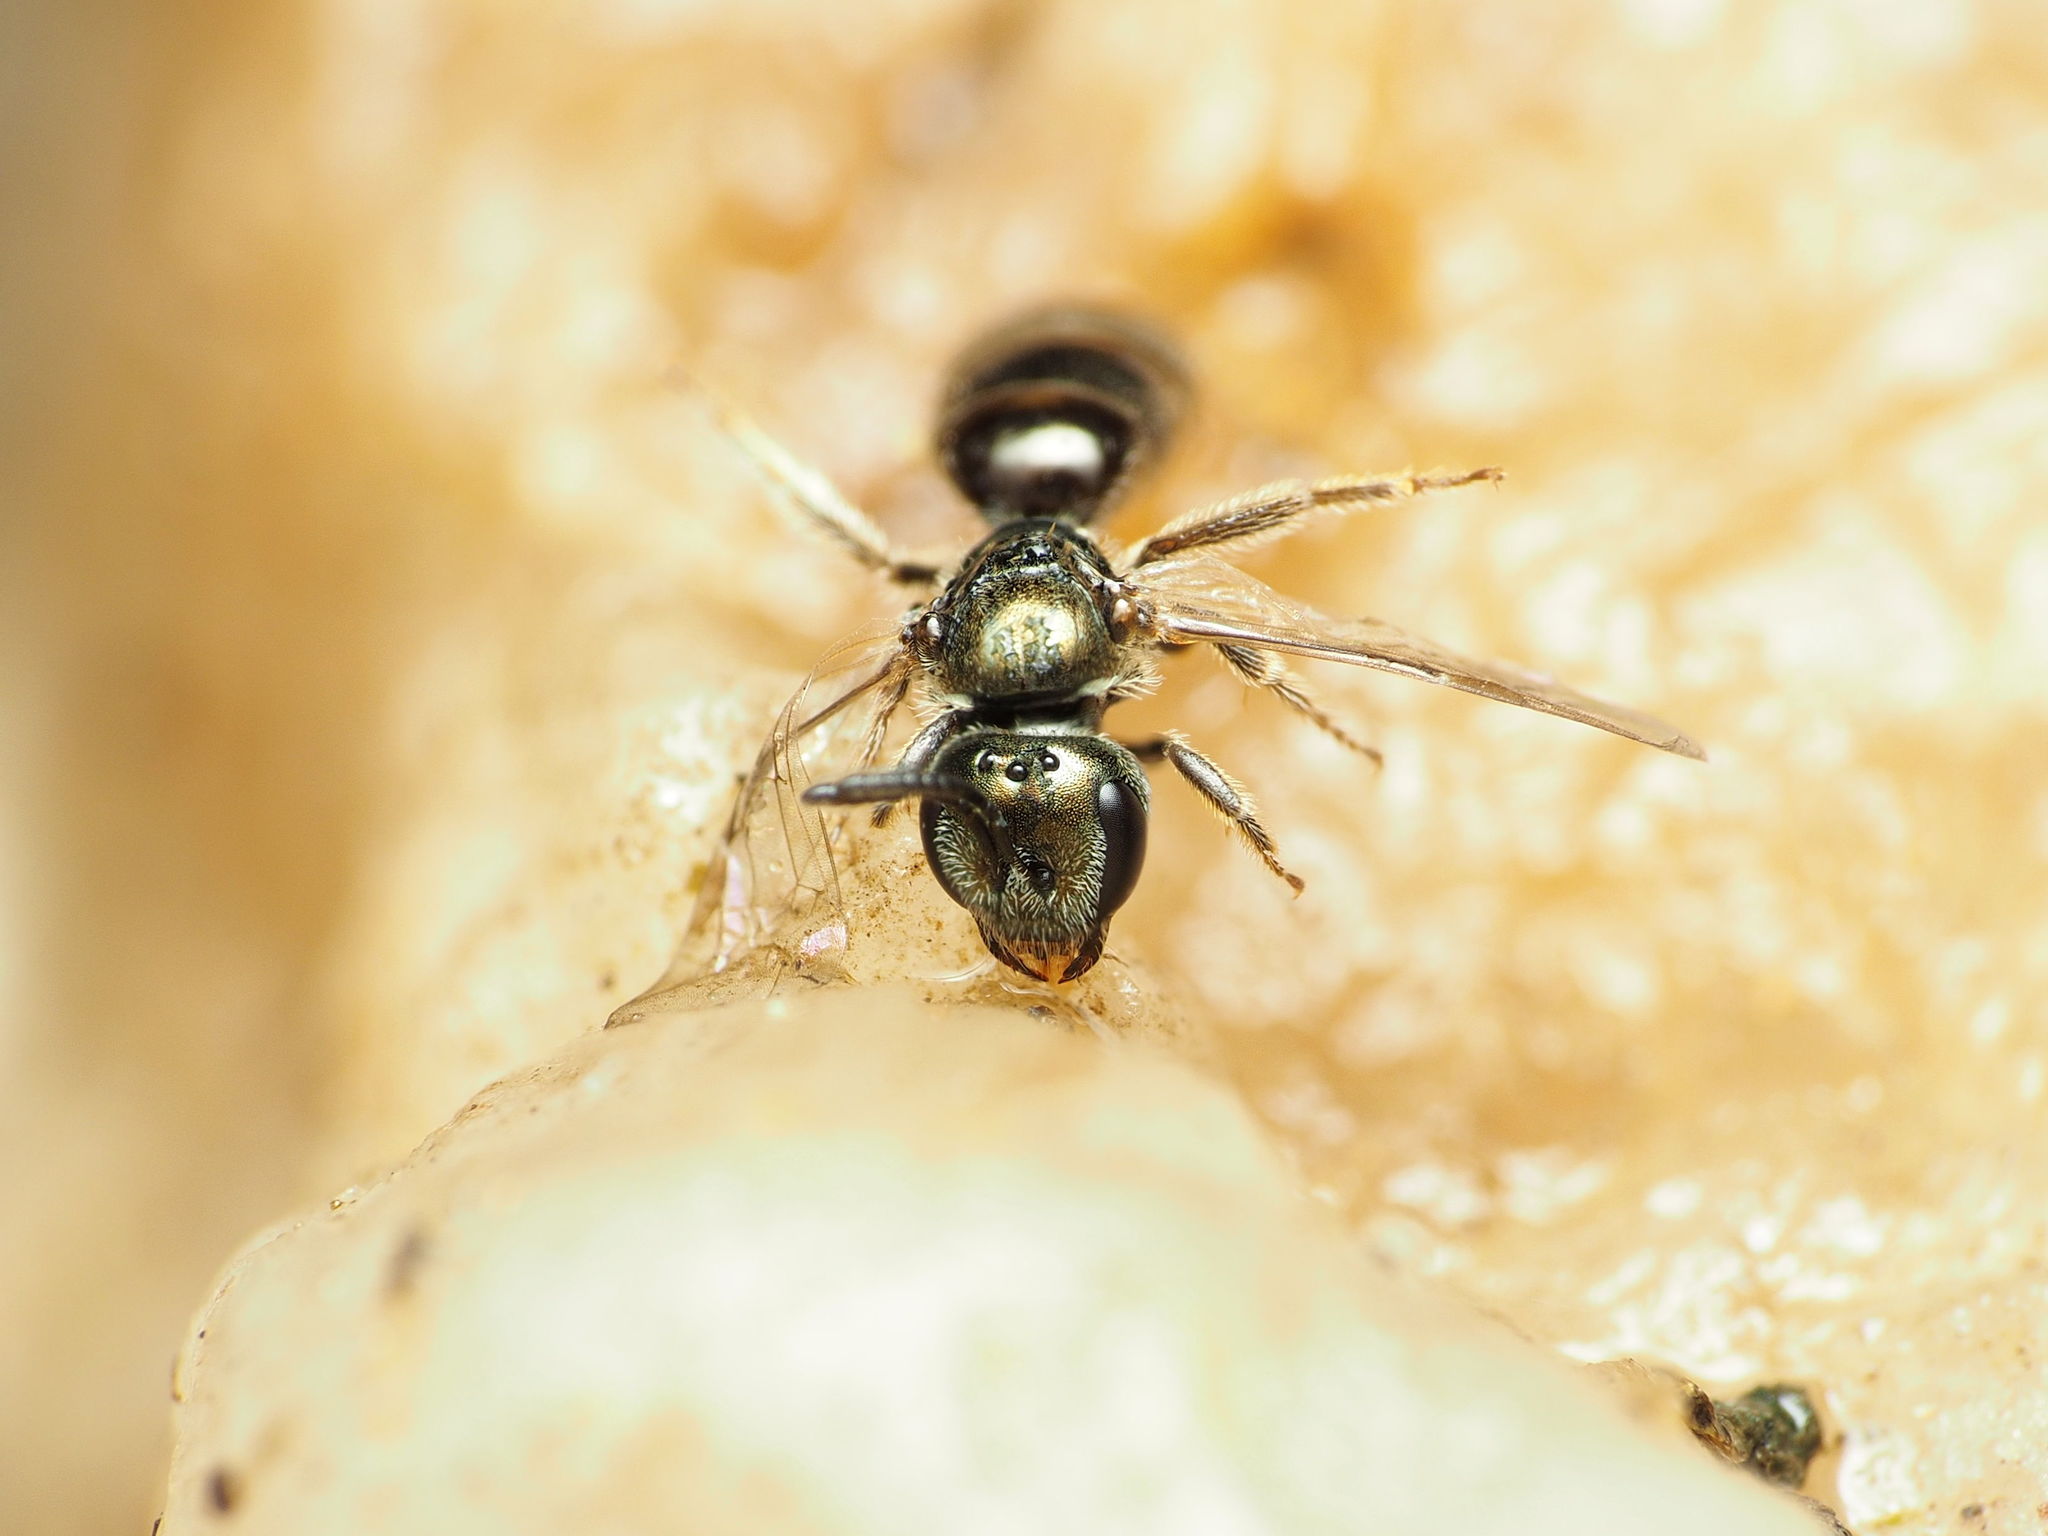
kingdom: Animalia
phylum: Arthropoda
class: Insecta
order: Hymenoptera
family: Halictidae
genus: Lasioglossum
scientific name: Lasioglossum imitatum
